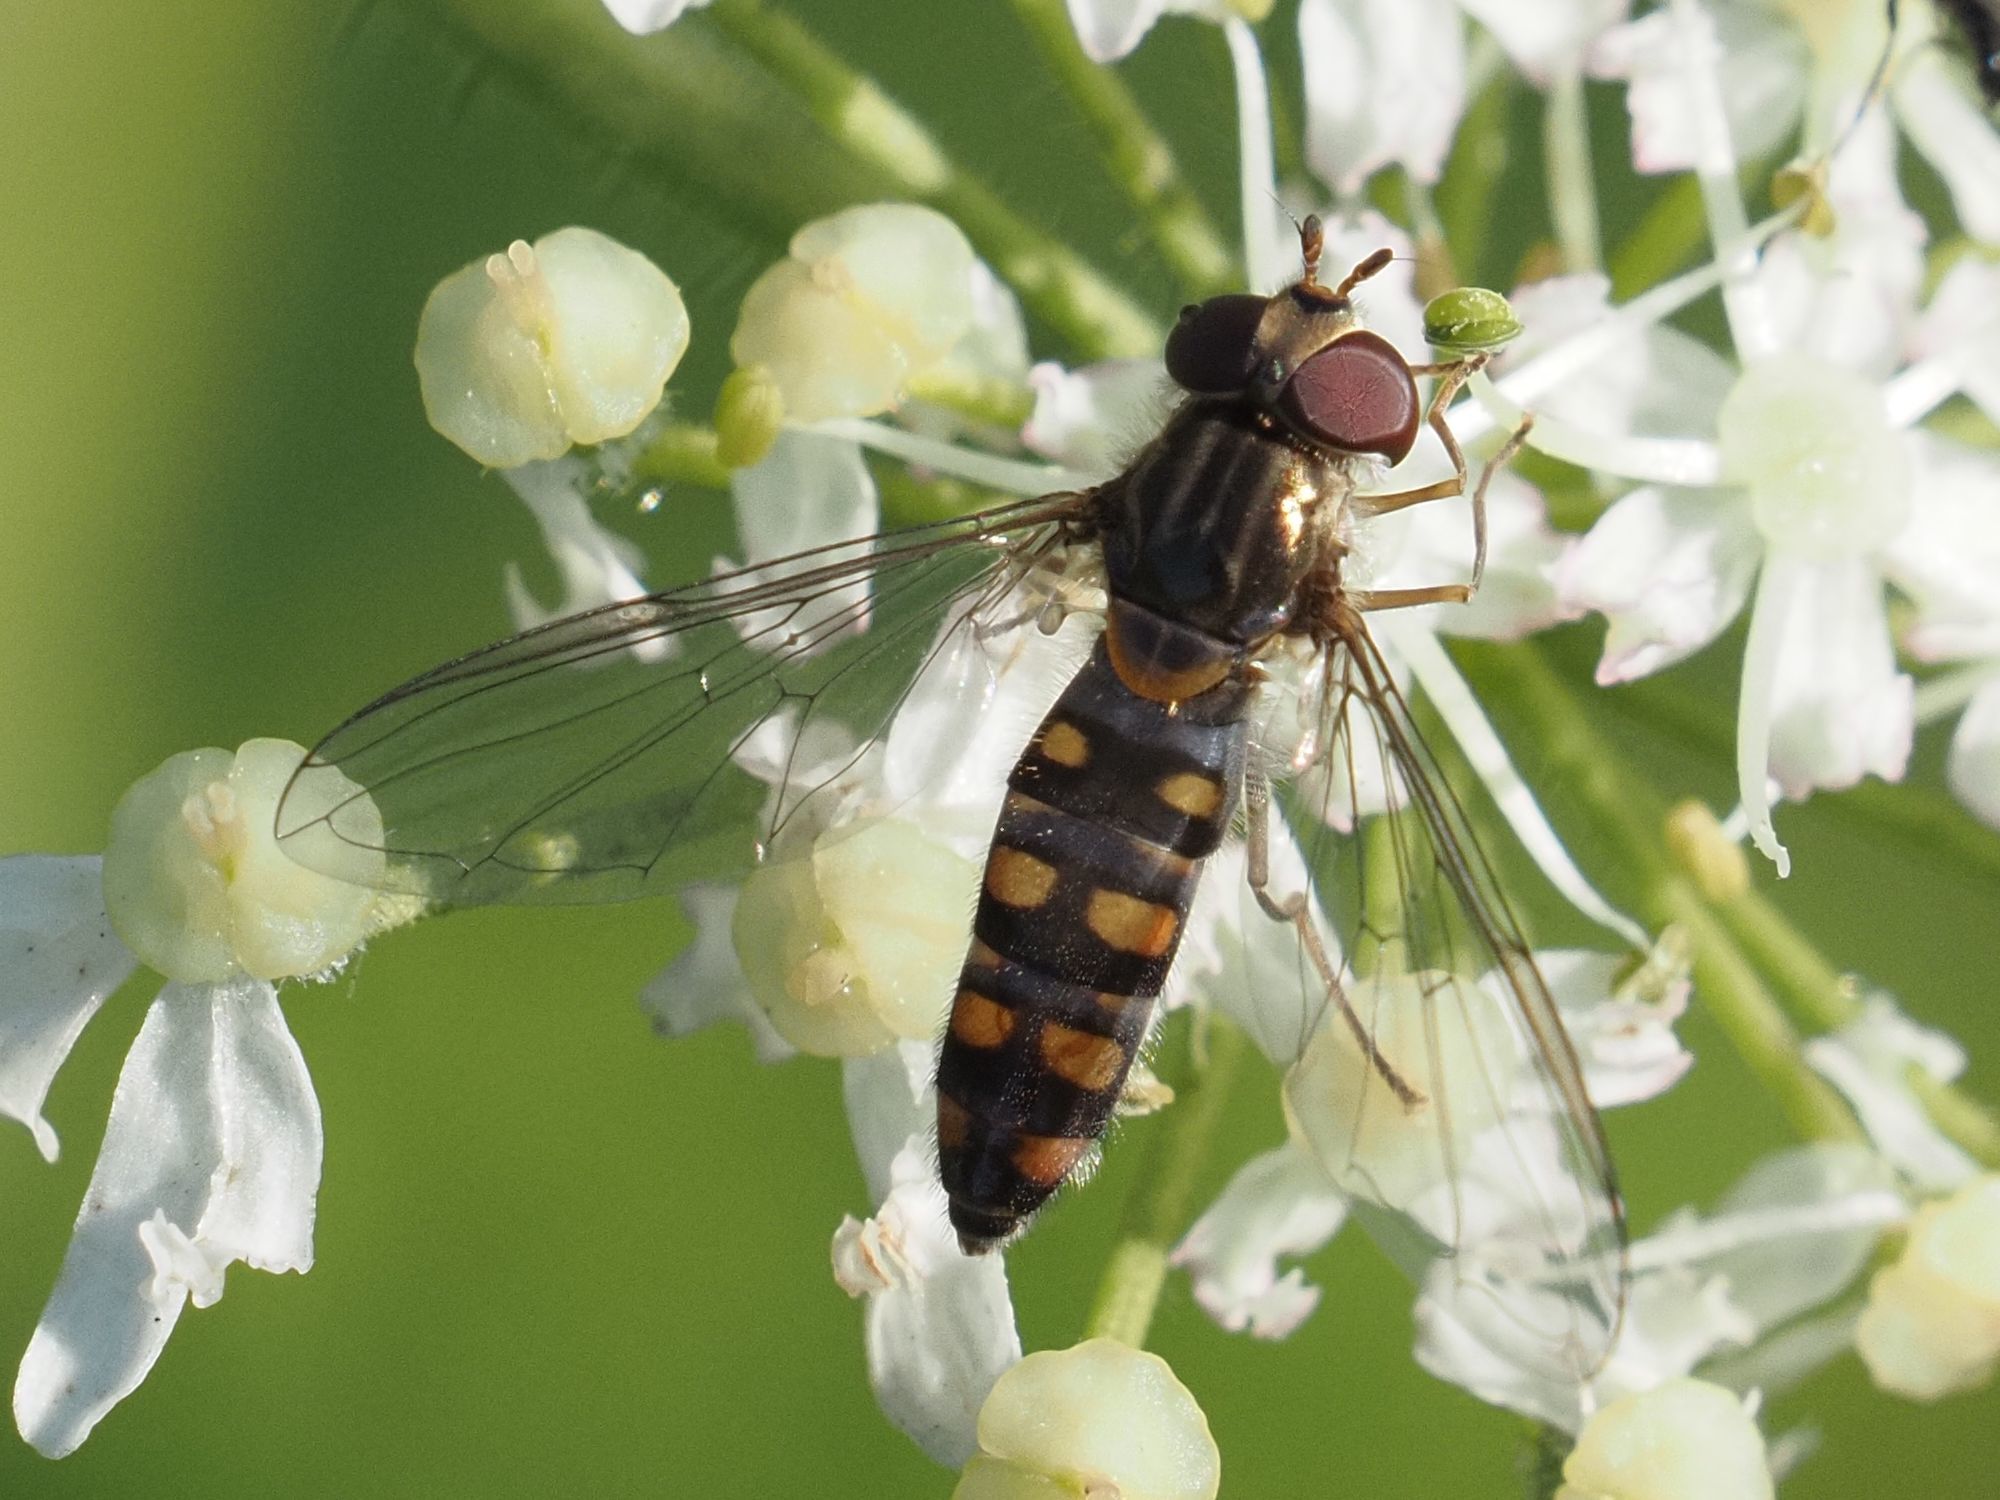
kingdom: Animalia
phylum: Arthropoda
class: Insecta
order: Diptera
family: Syrphidae
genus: Episyrphus
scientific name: Episyrphus balteatus
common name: Marmalade hoverfly
